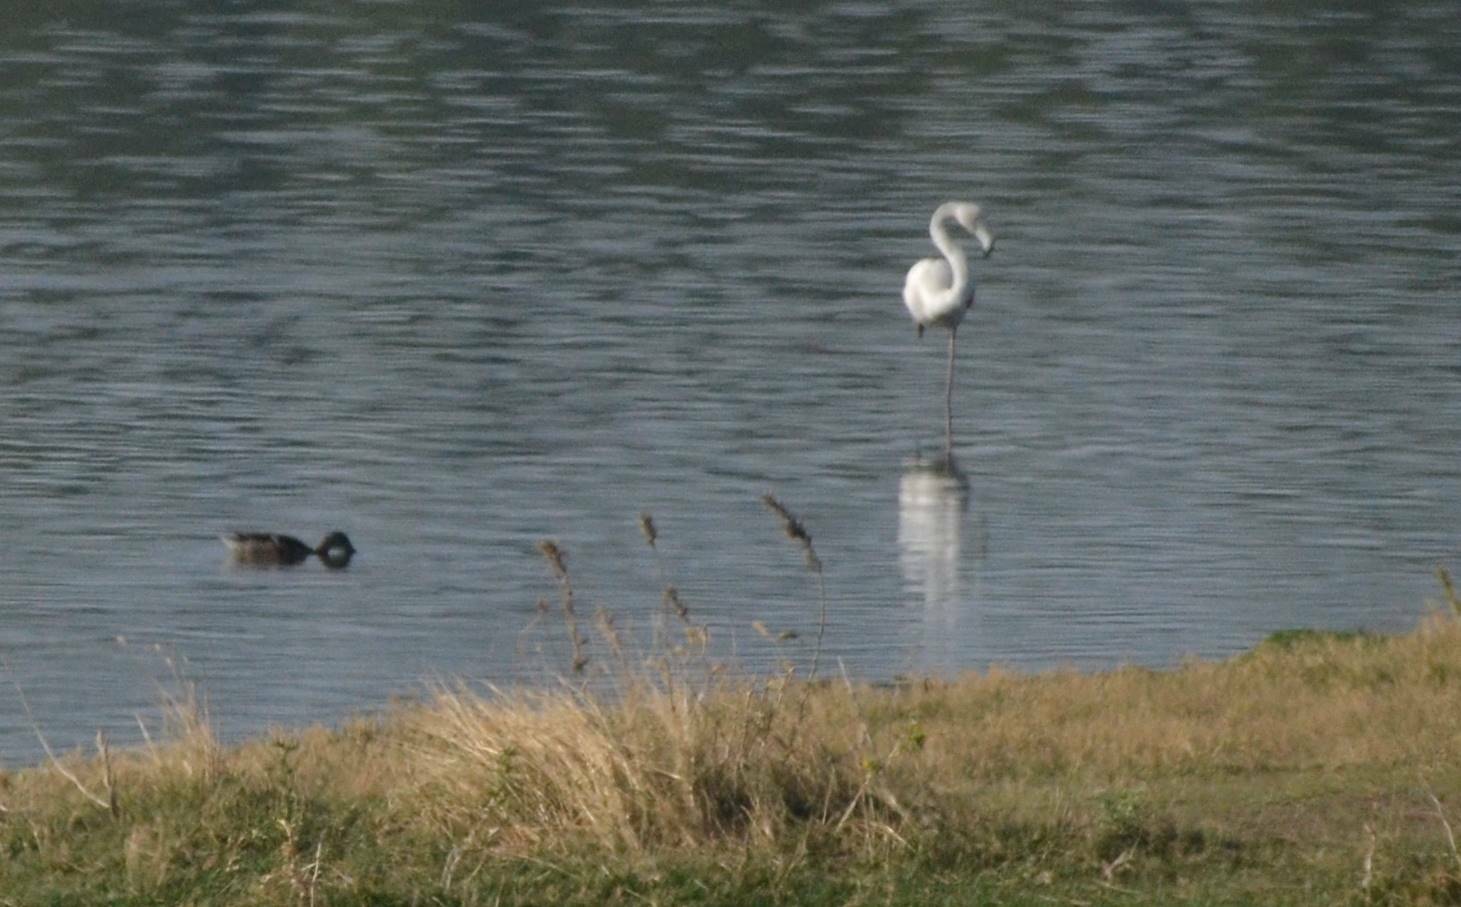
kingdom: Animalia
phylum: Chordata
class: Aves
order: Phoenicopteriformes
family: Phoenicopteridae
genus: Phoenicopterus
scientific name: Phoenicopterus roseus
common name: Greater flamingo
